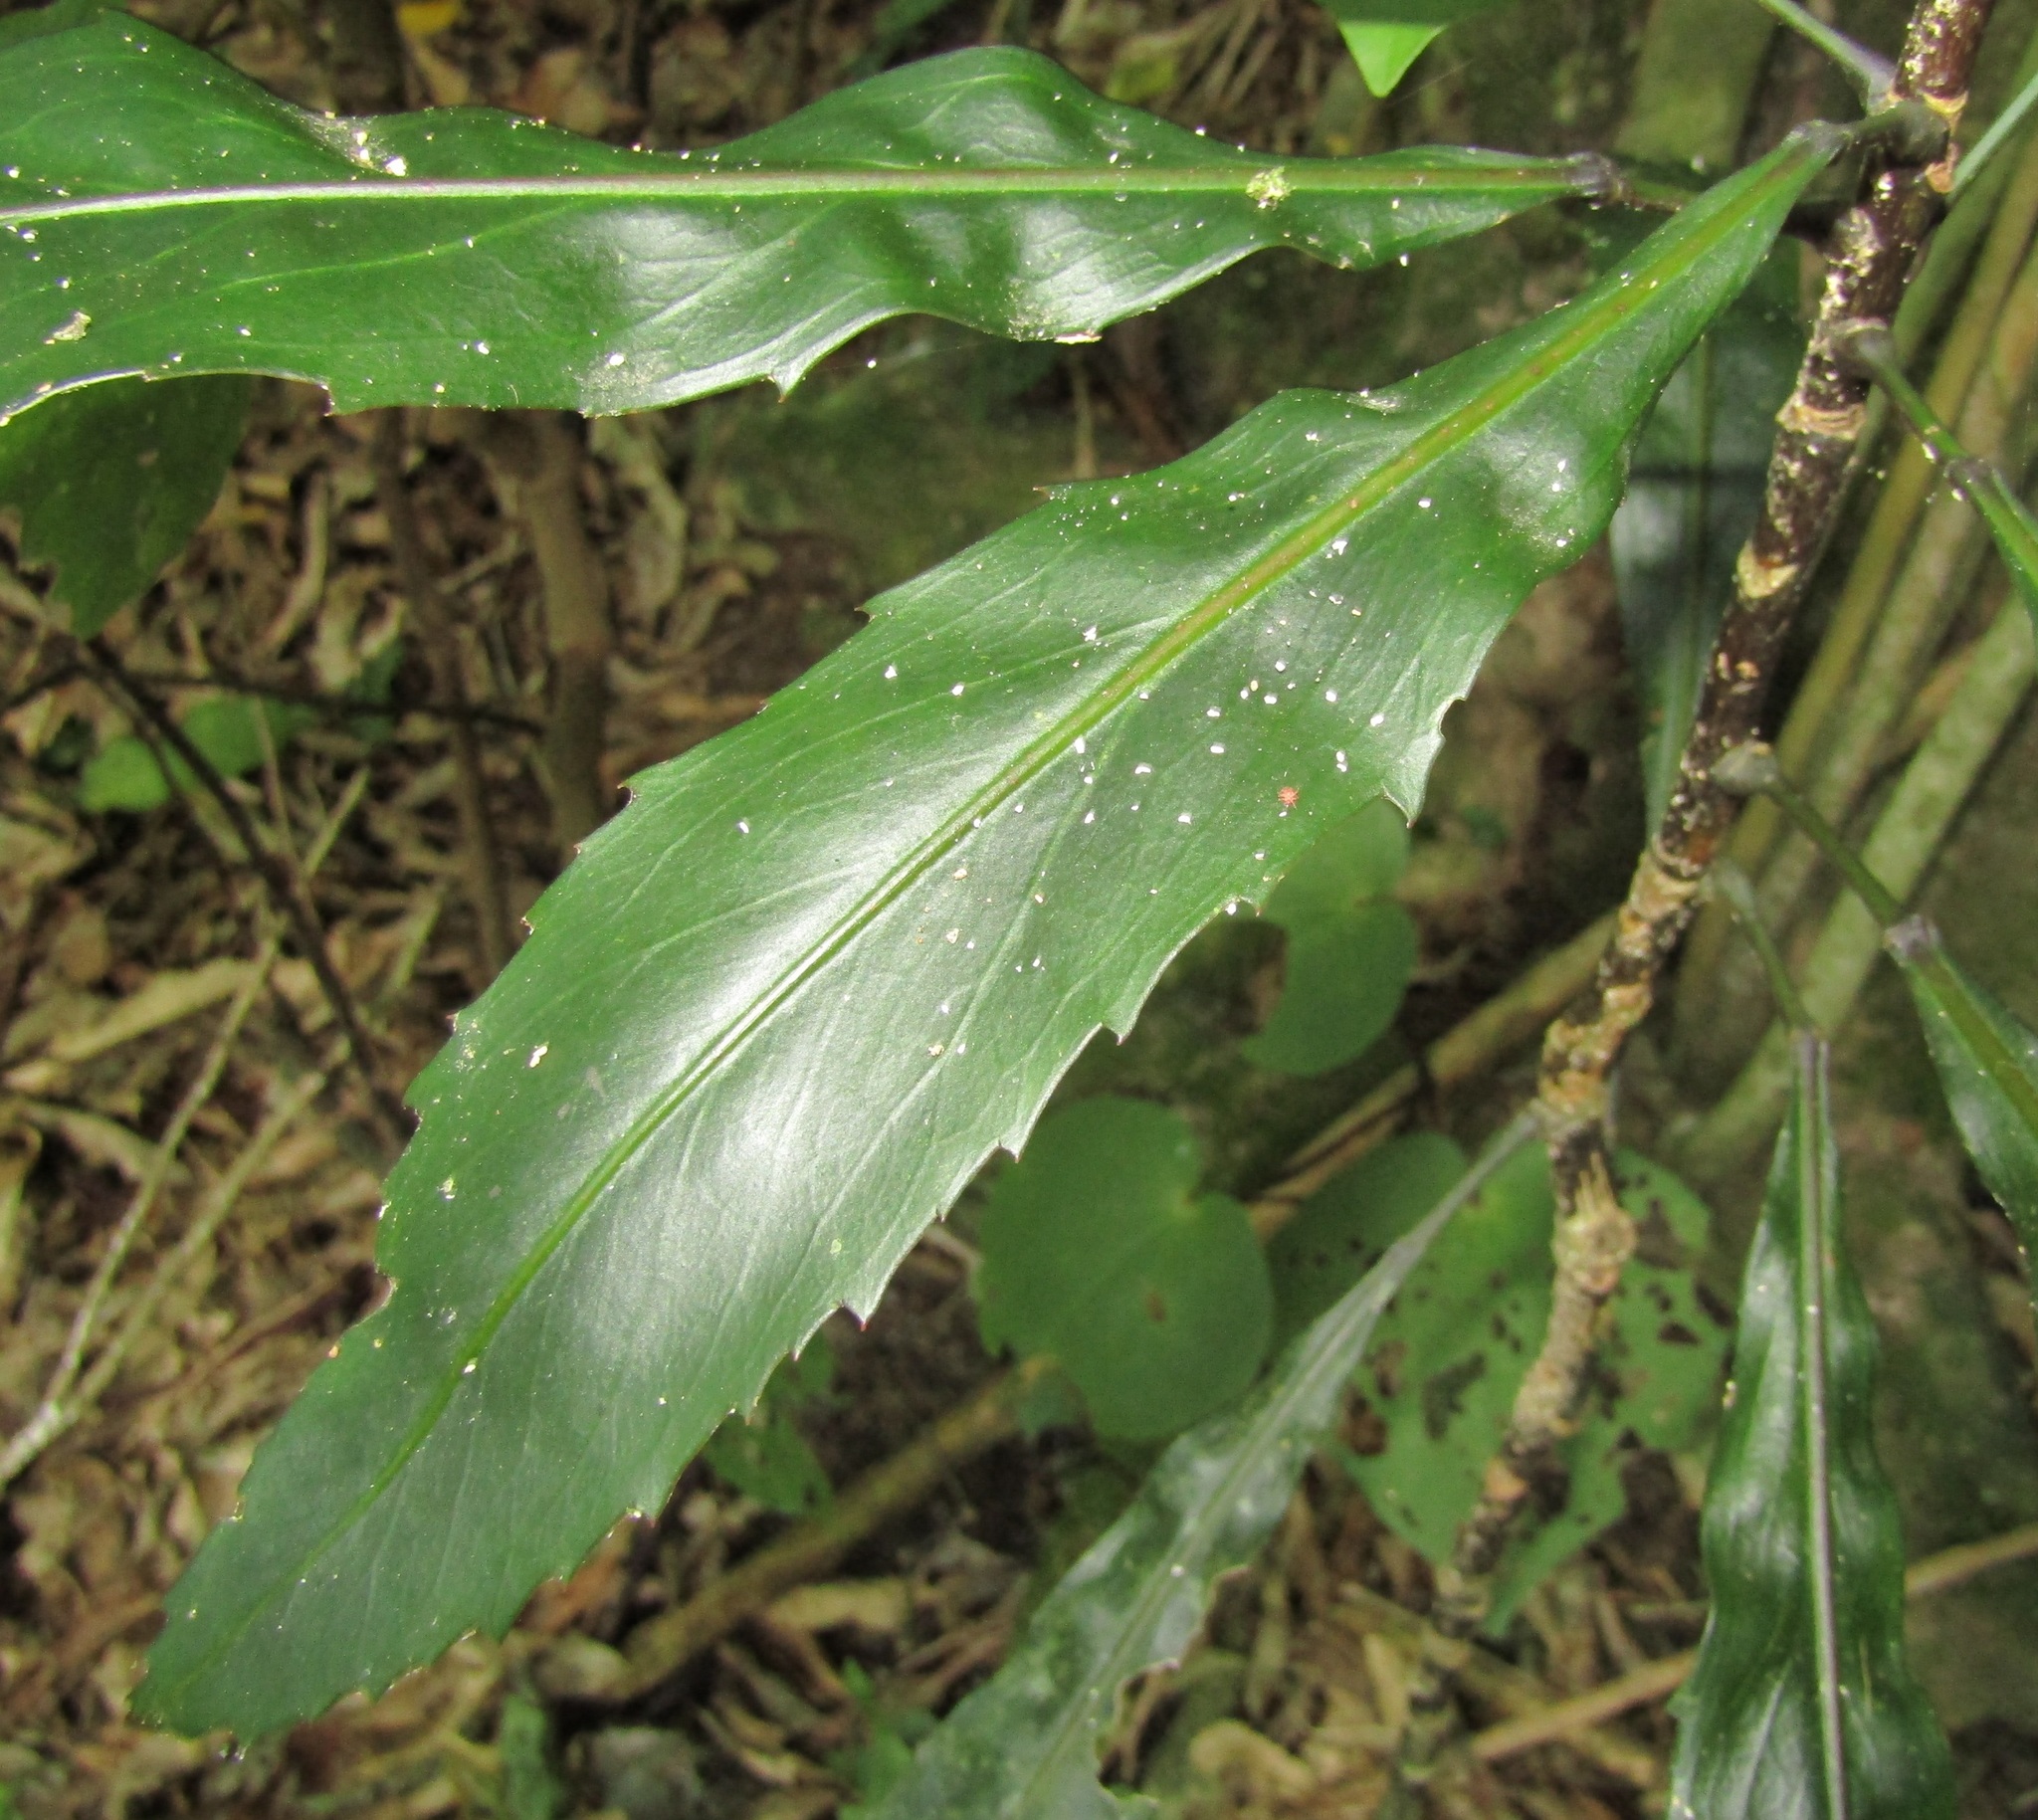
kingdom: Plantae
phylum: Tracheophyta
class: Magnoliopsida
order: Apiales
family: Araliaceae
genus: Pseudopanax
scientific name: Pseudopanax
